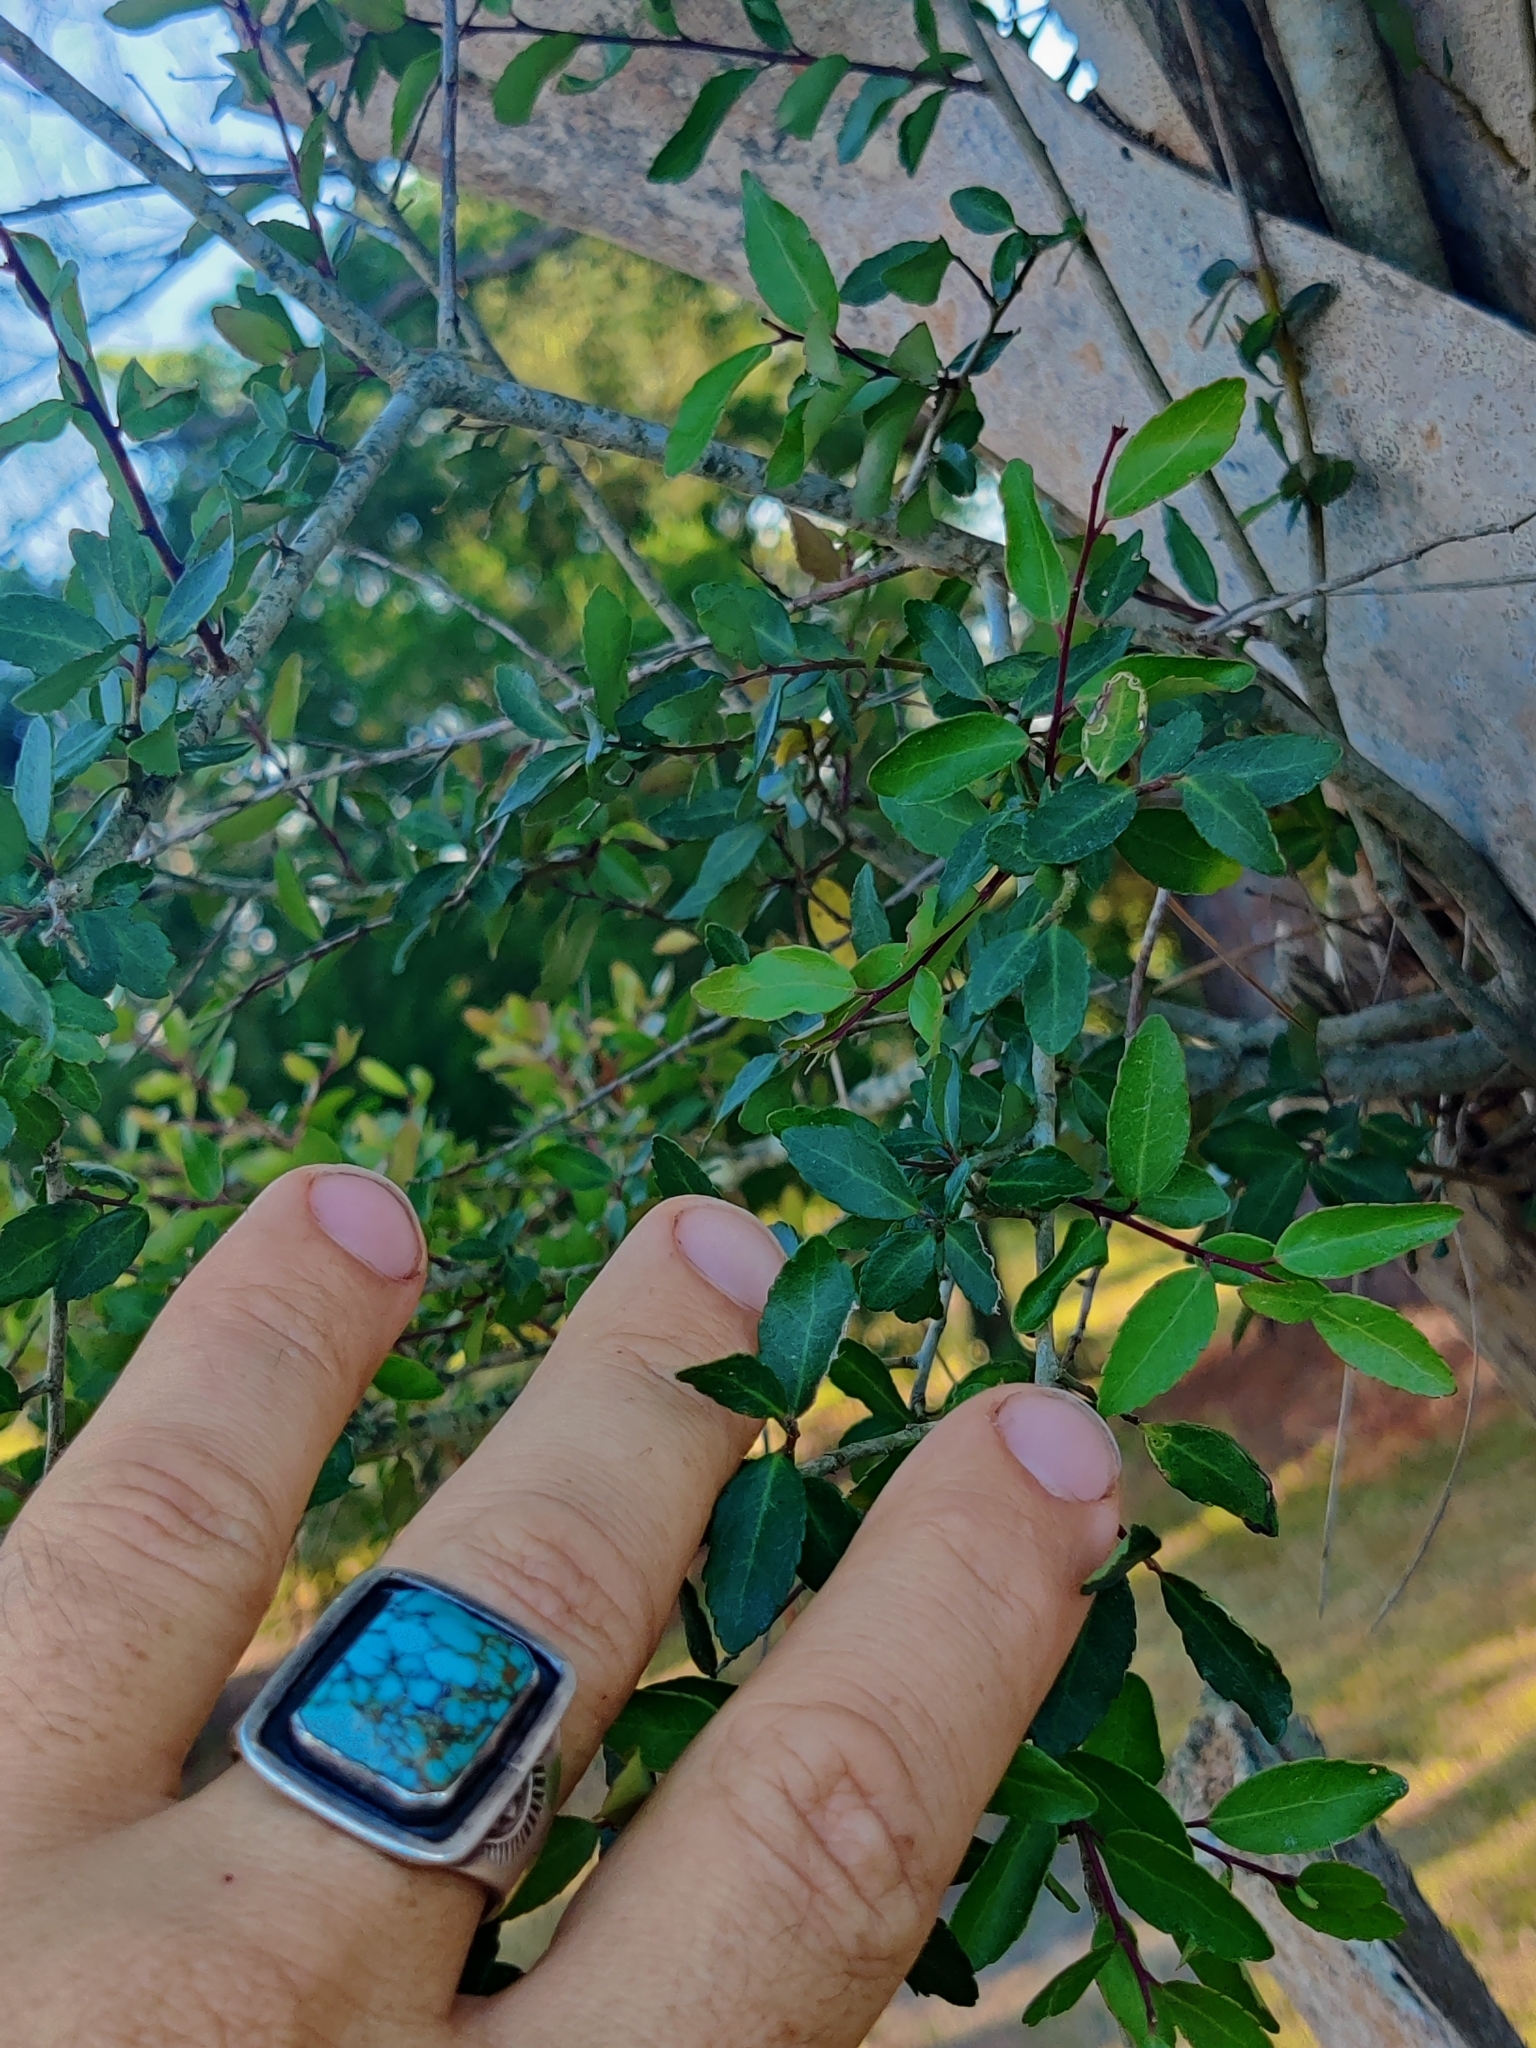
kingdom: Plantae
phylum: Tracheophyta
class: Magnoliopsida
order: Aquifoliales
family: Aquifoliaceae
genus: Ilex
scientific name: Ilex vomitoria
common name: Yaupon holly
